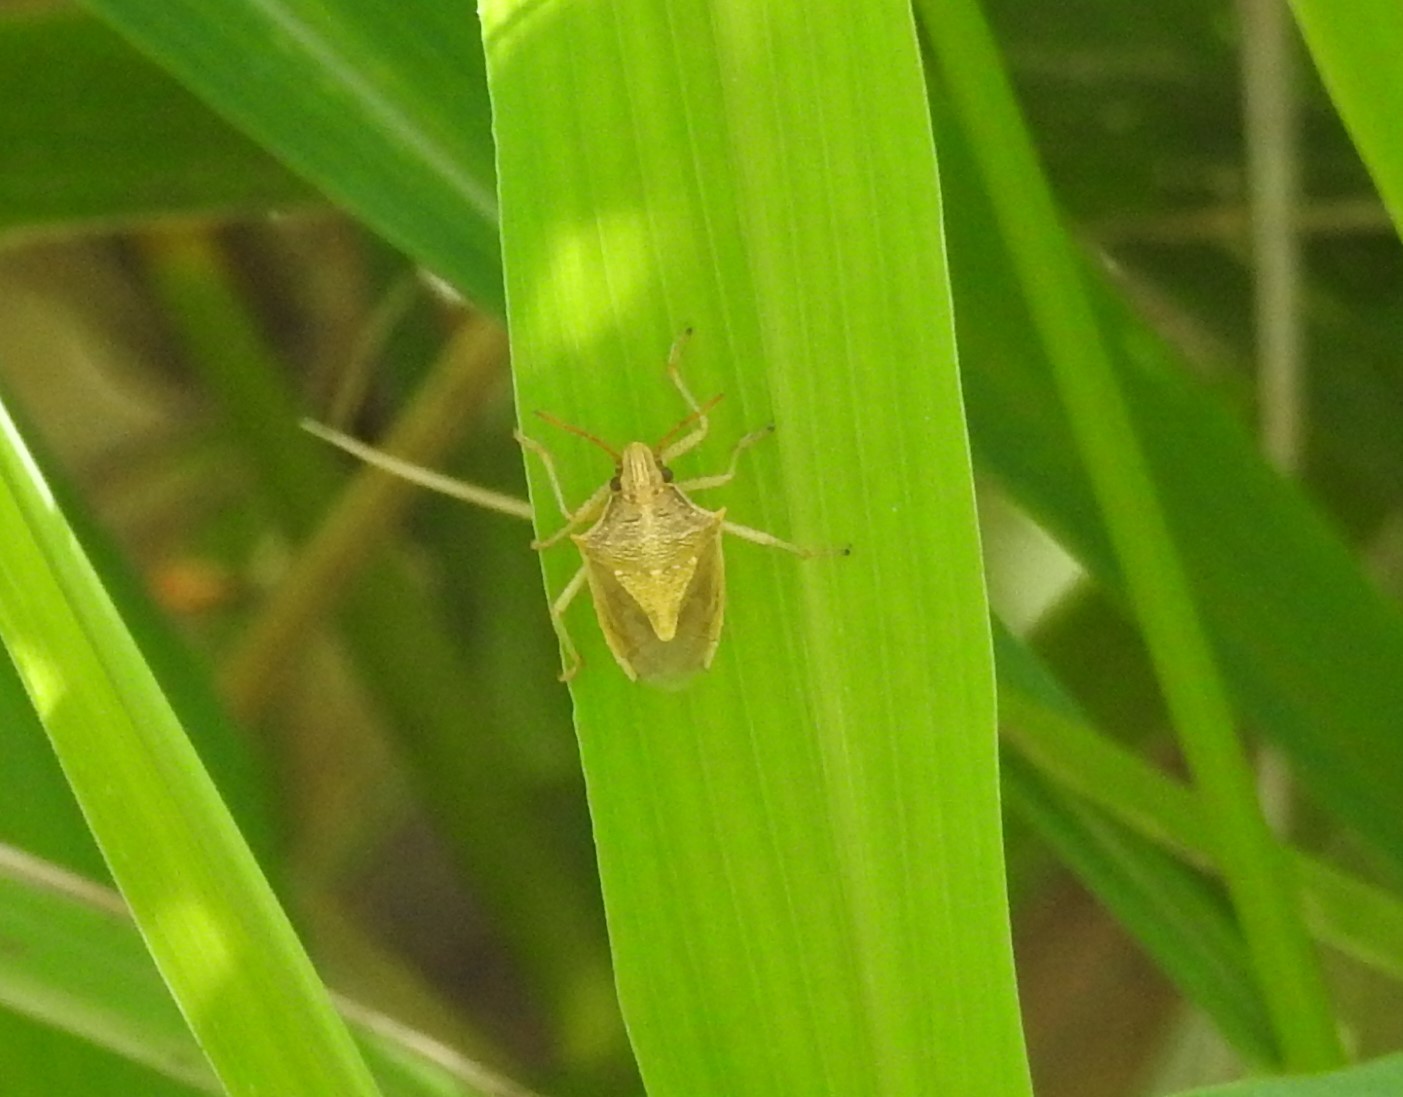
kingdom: Animalia
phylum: Arthropoda
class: Insecta
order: Hemiptera
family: Pentatomidae
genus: Oebalus
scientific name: Oebalus pugnax
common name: Rice stink bug
